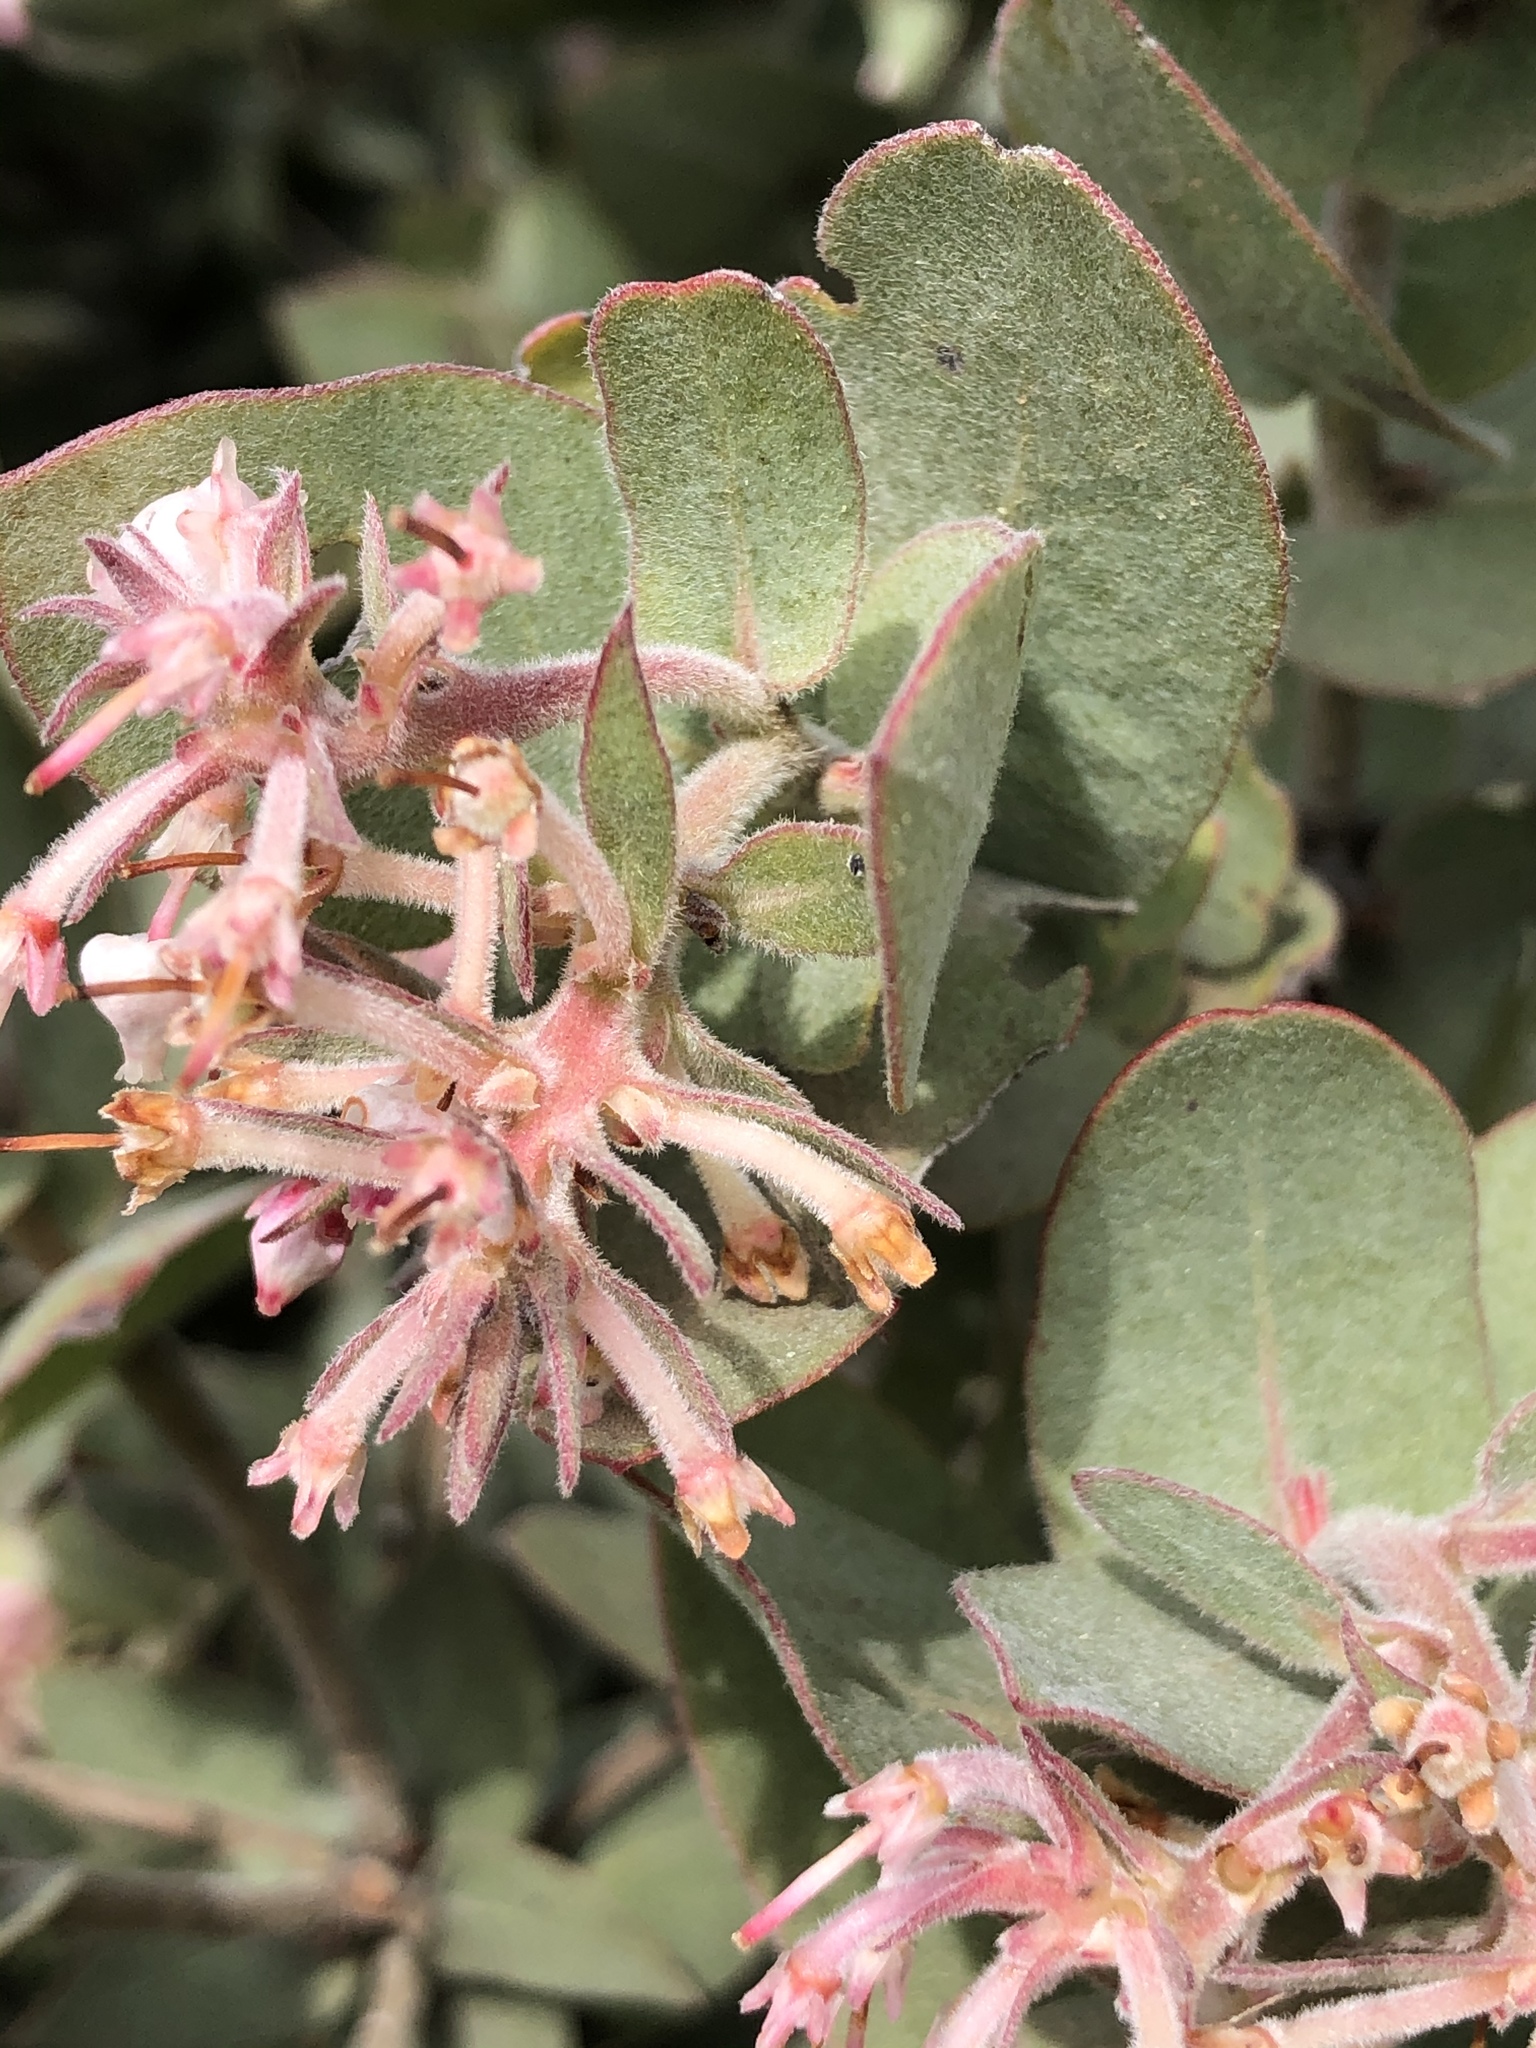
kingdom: Plantae
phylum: Tracheophyta
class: Magnoliopsida
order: Ericales
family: Ericaceae
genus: Arctostaphylos
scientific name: Arctostaphylos auriculata
